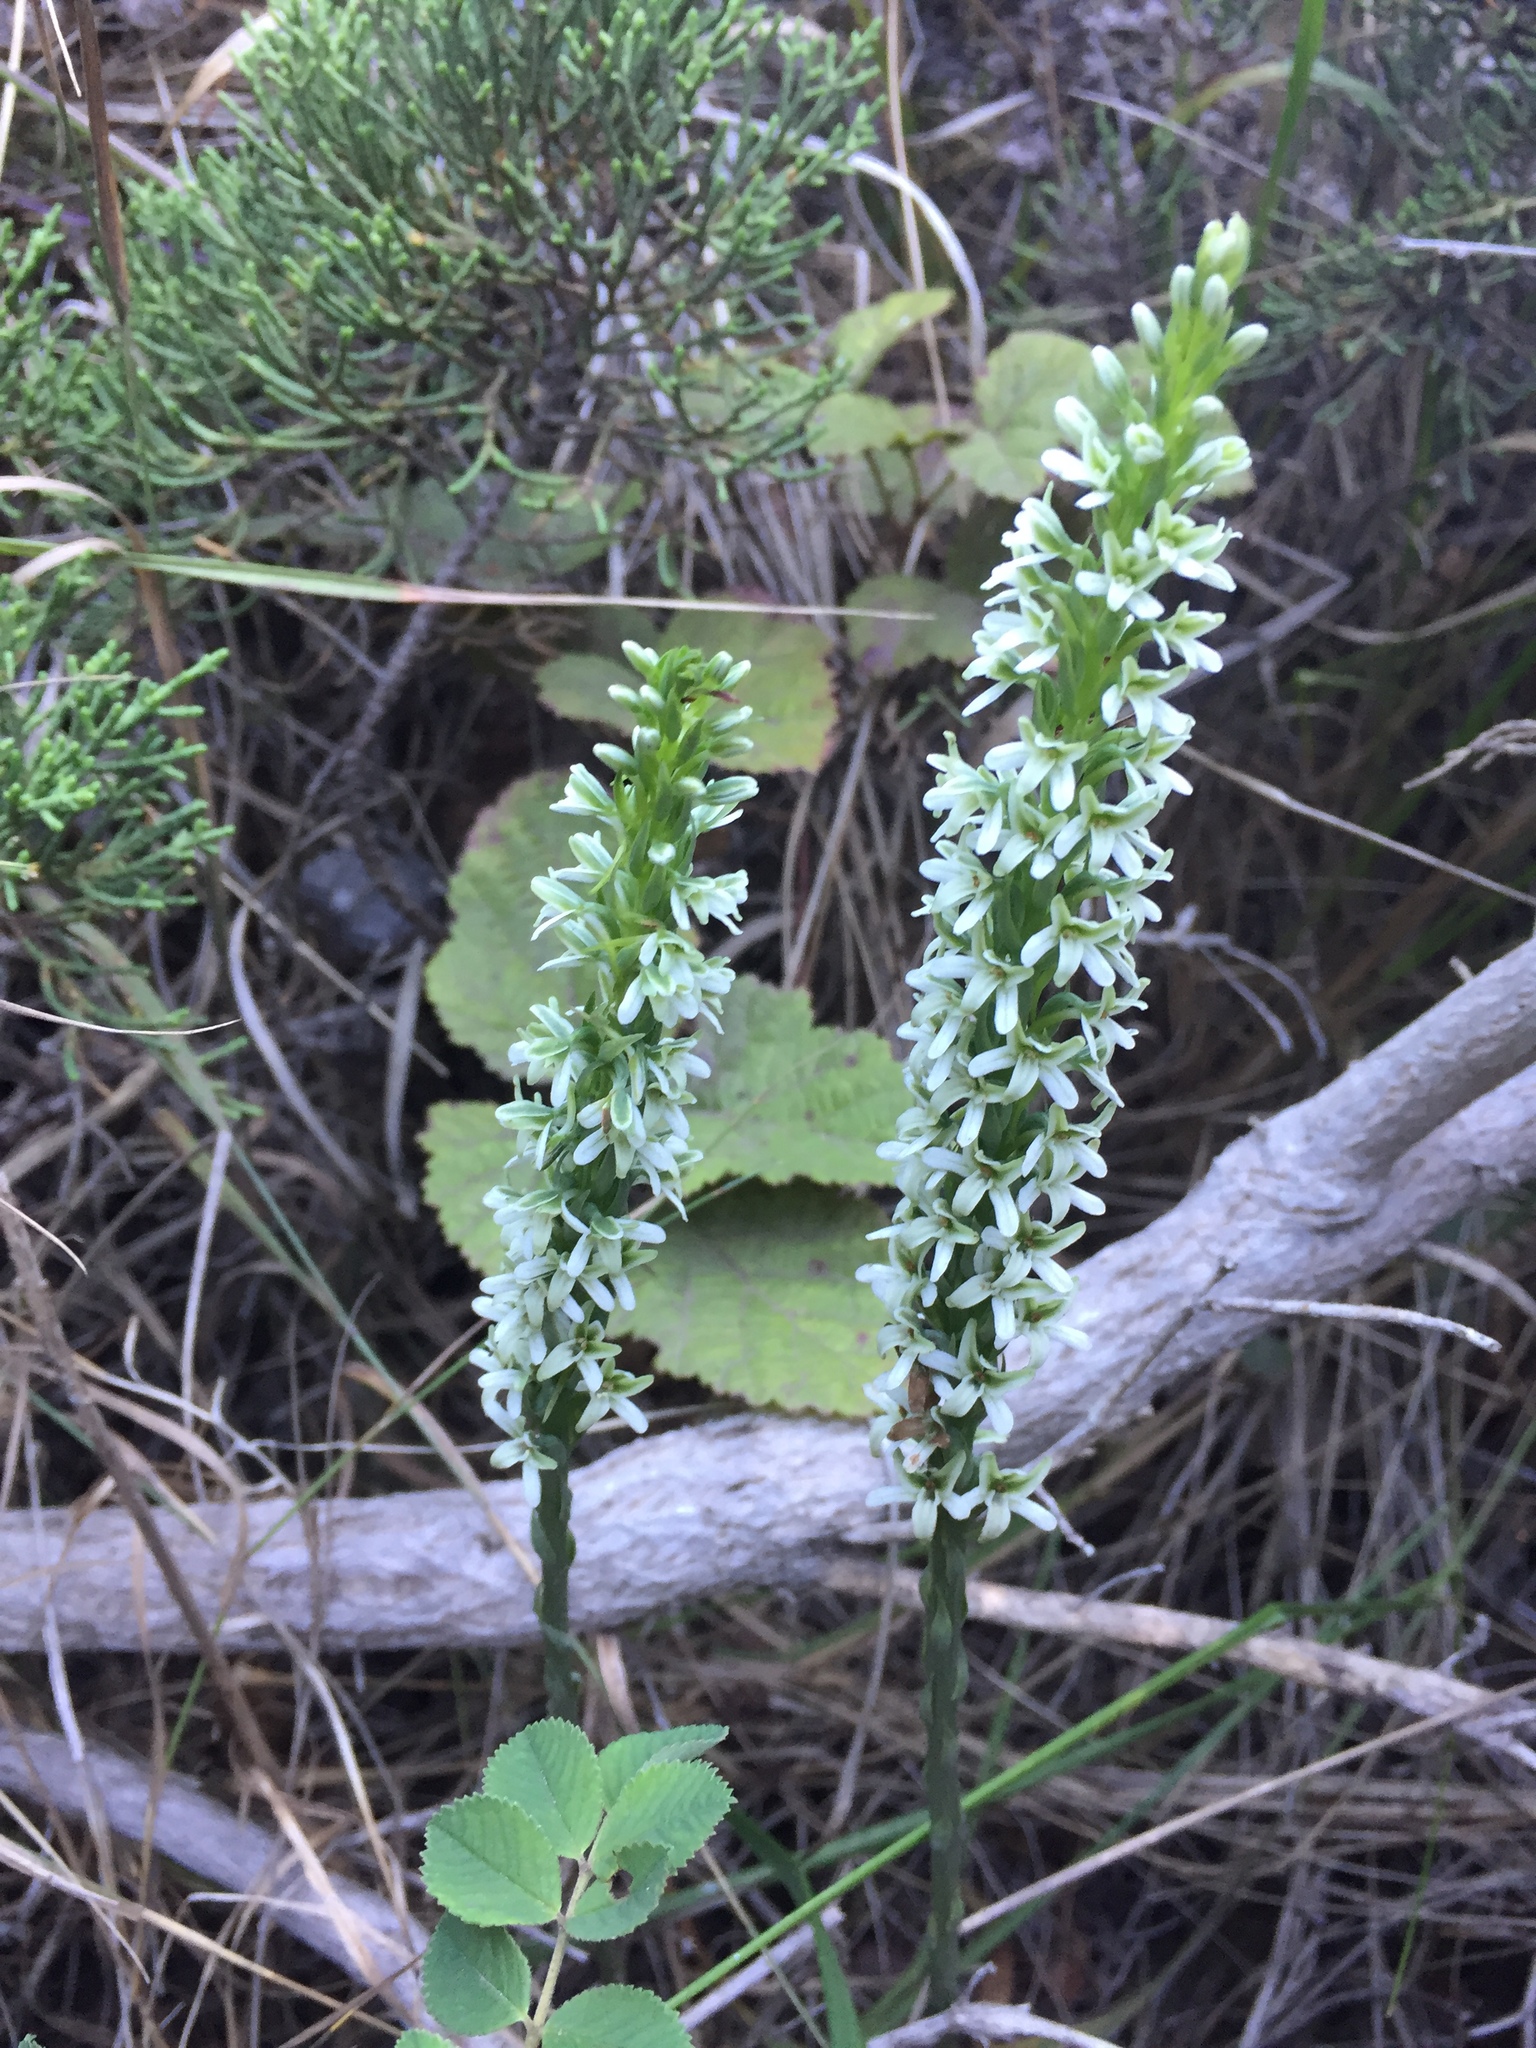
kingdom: Plantae
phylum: Tracheophyta
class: Liliopsida
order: Asparagales
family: Orchidaceae
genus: Platanthera
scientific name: Platanthera elegans
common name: Coast piperia
